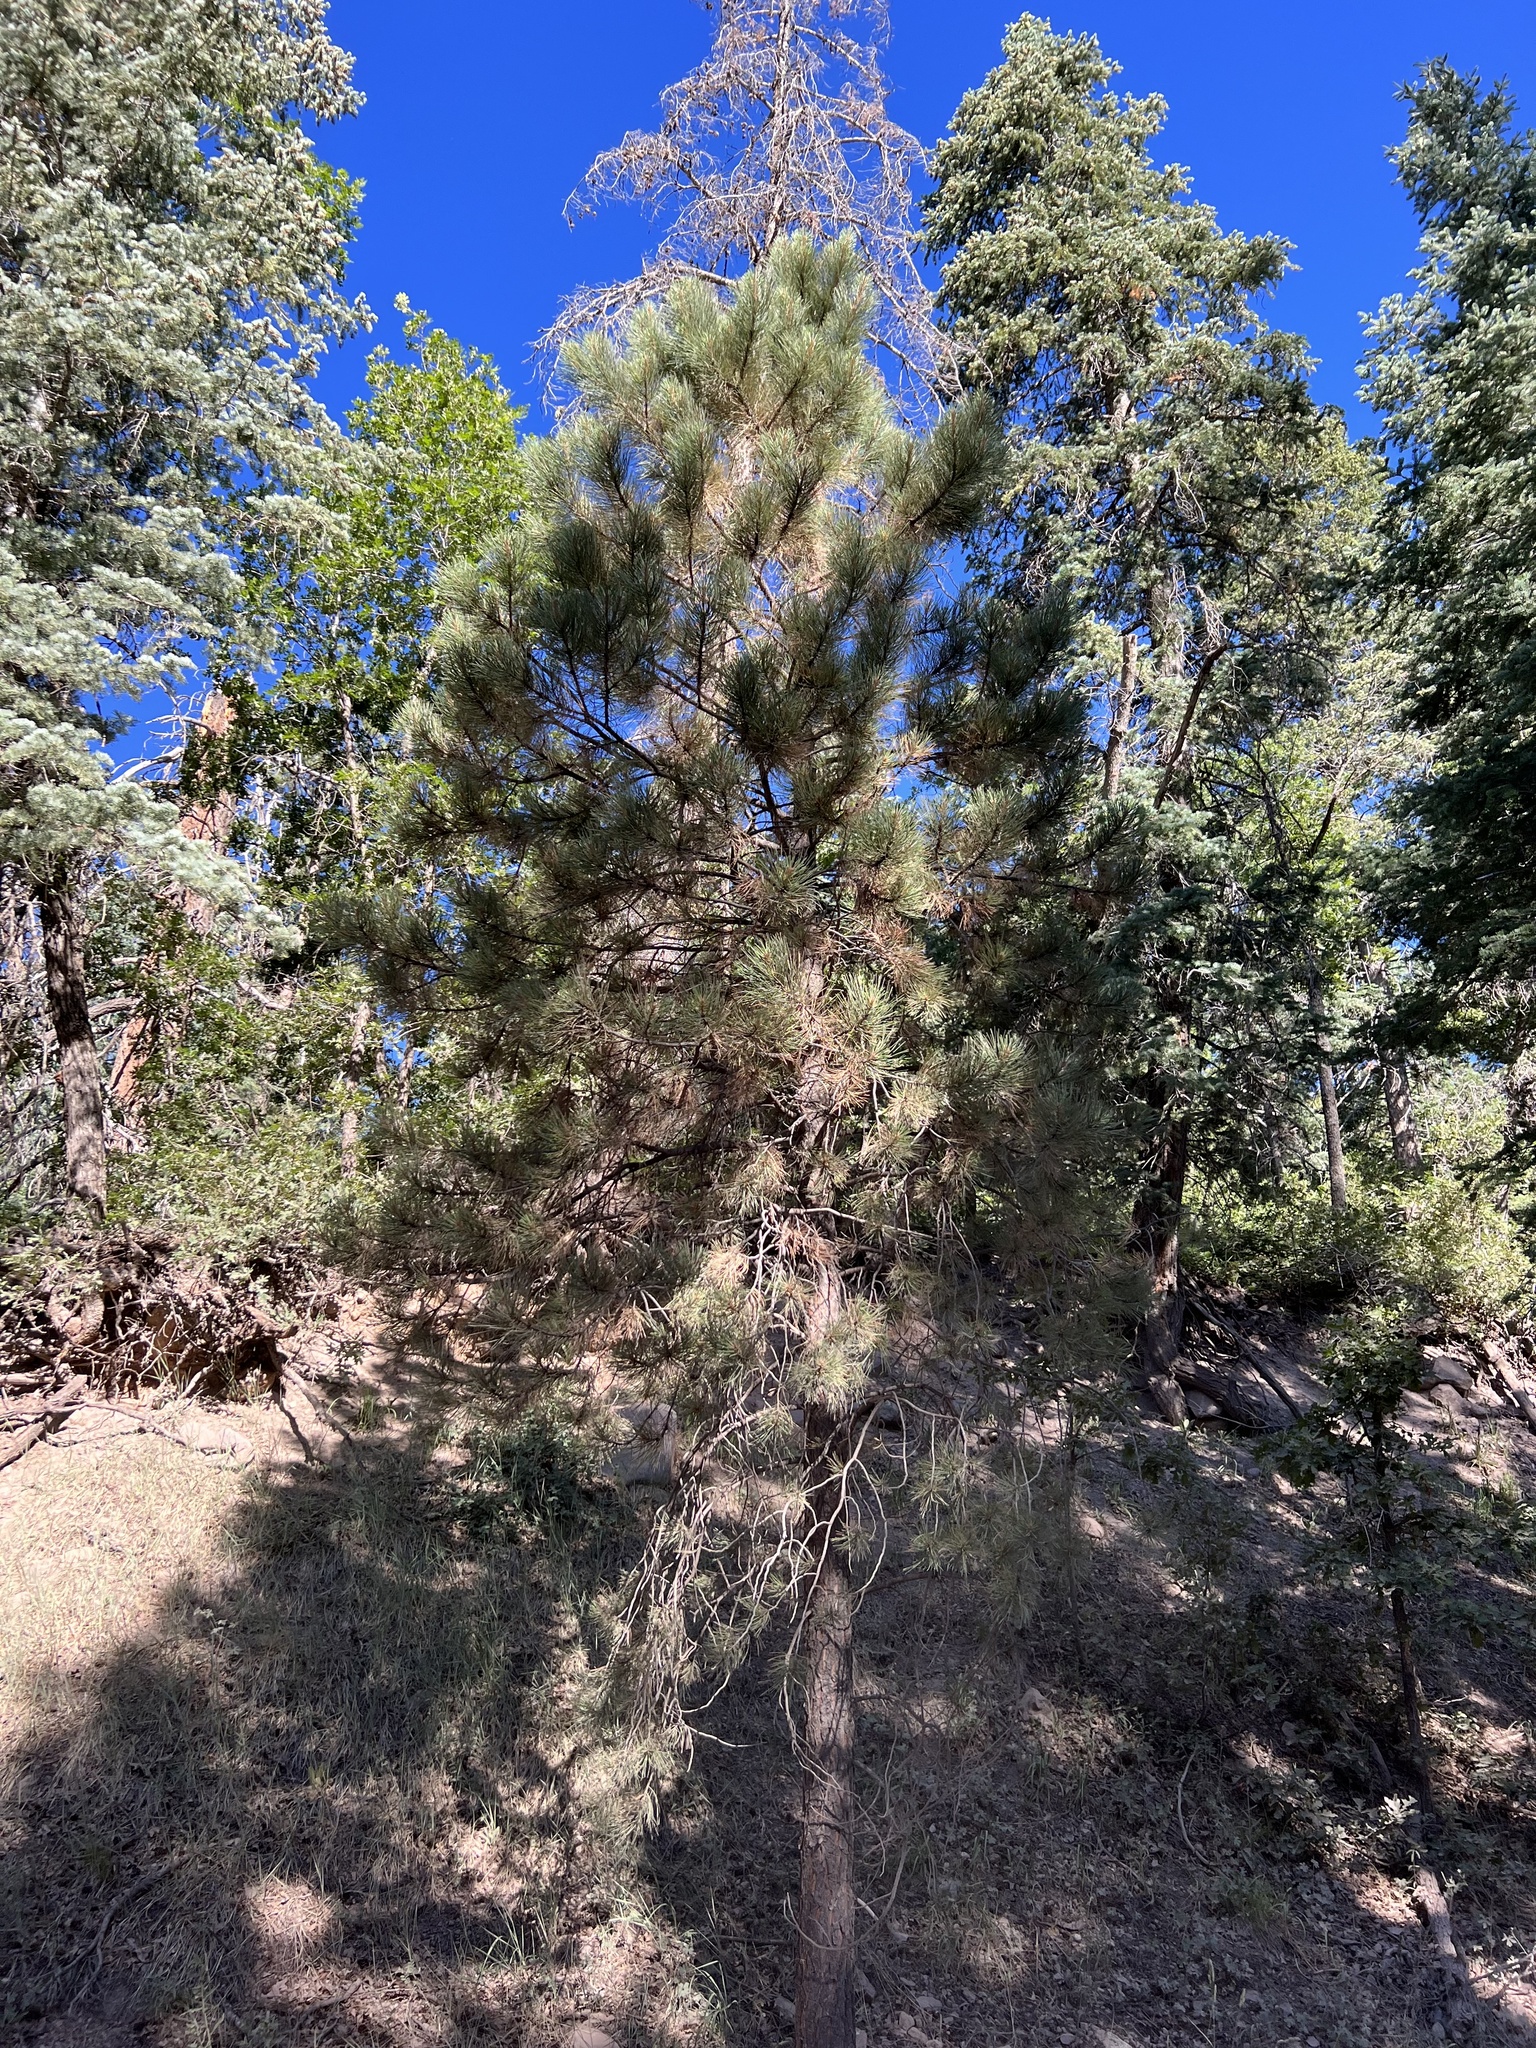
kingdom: Plantae
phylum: Tracheophyta
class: Pinopsida
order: Pinales
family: Pinaceae
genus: Pinus
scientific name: Pinus ponderosa
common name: Western yellow-pine
